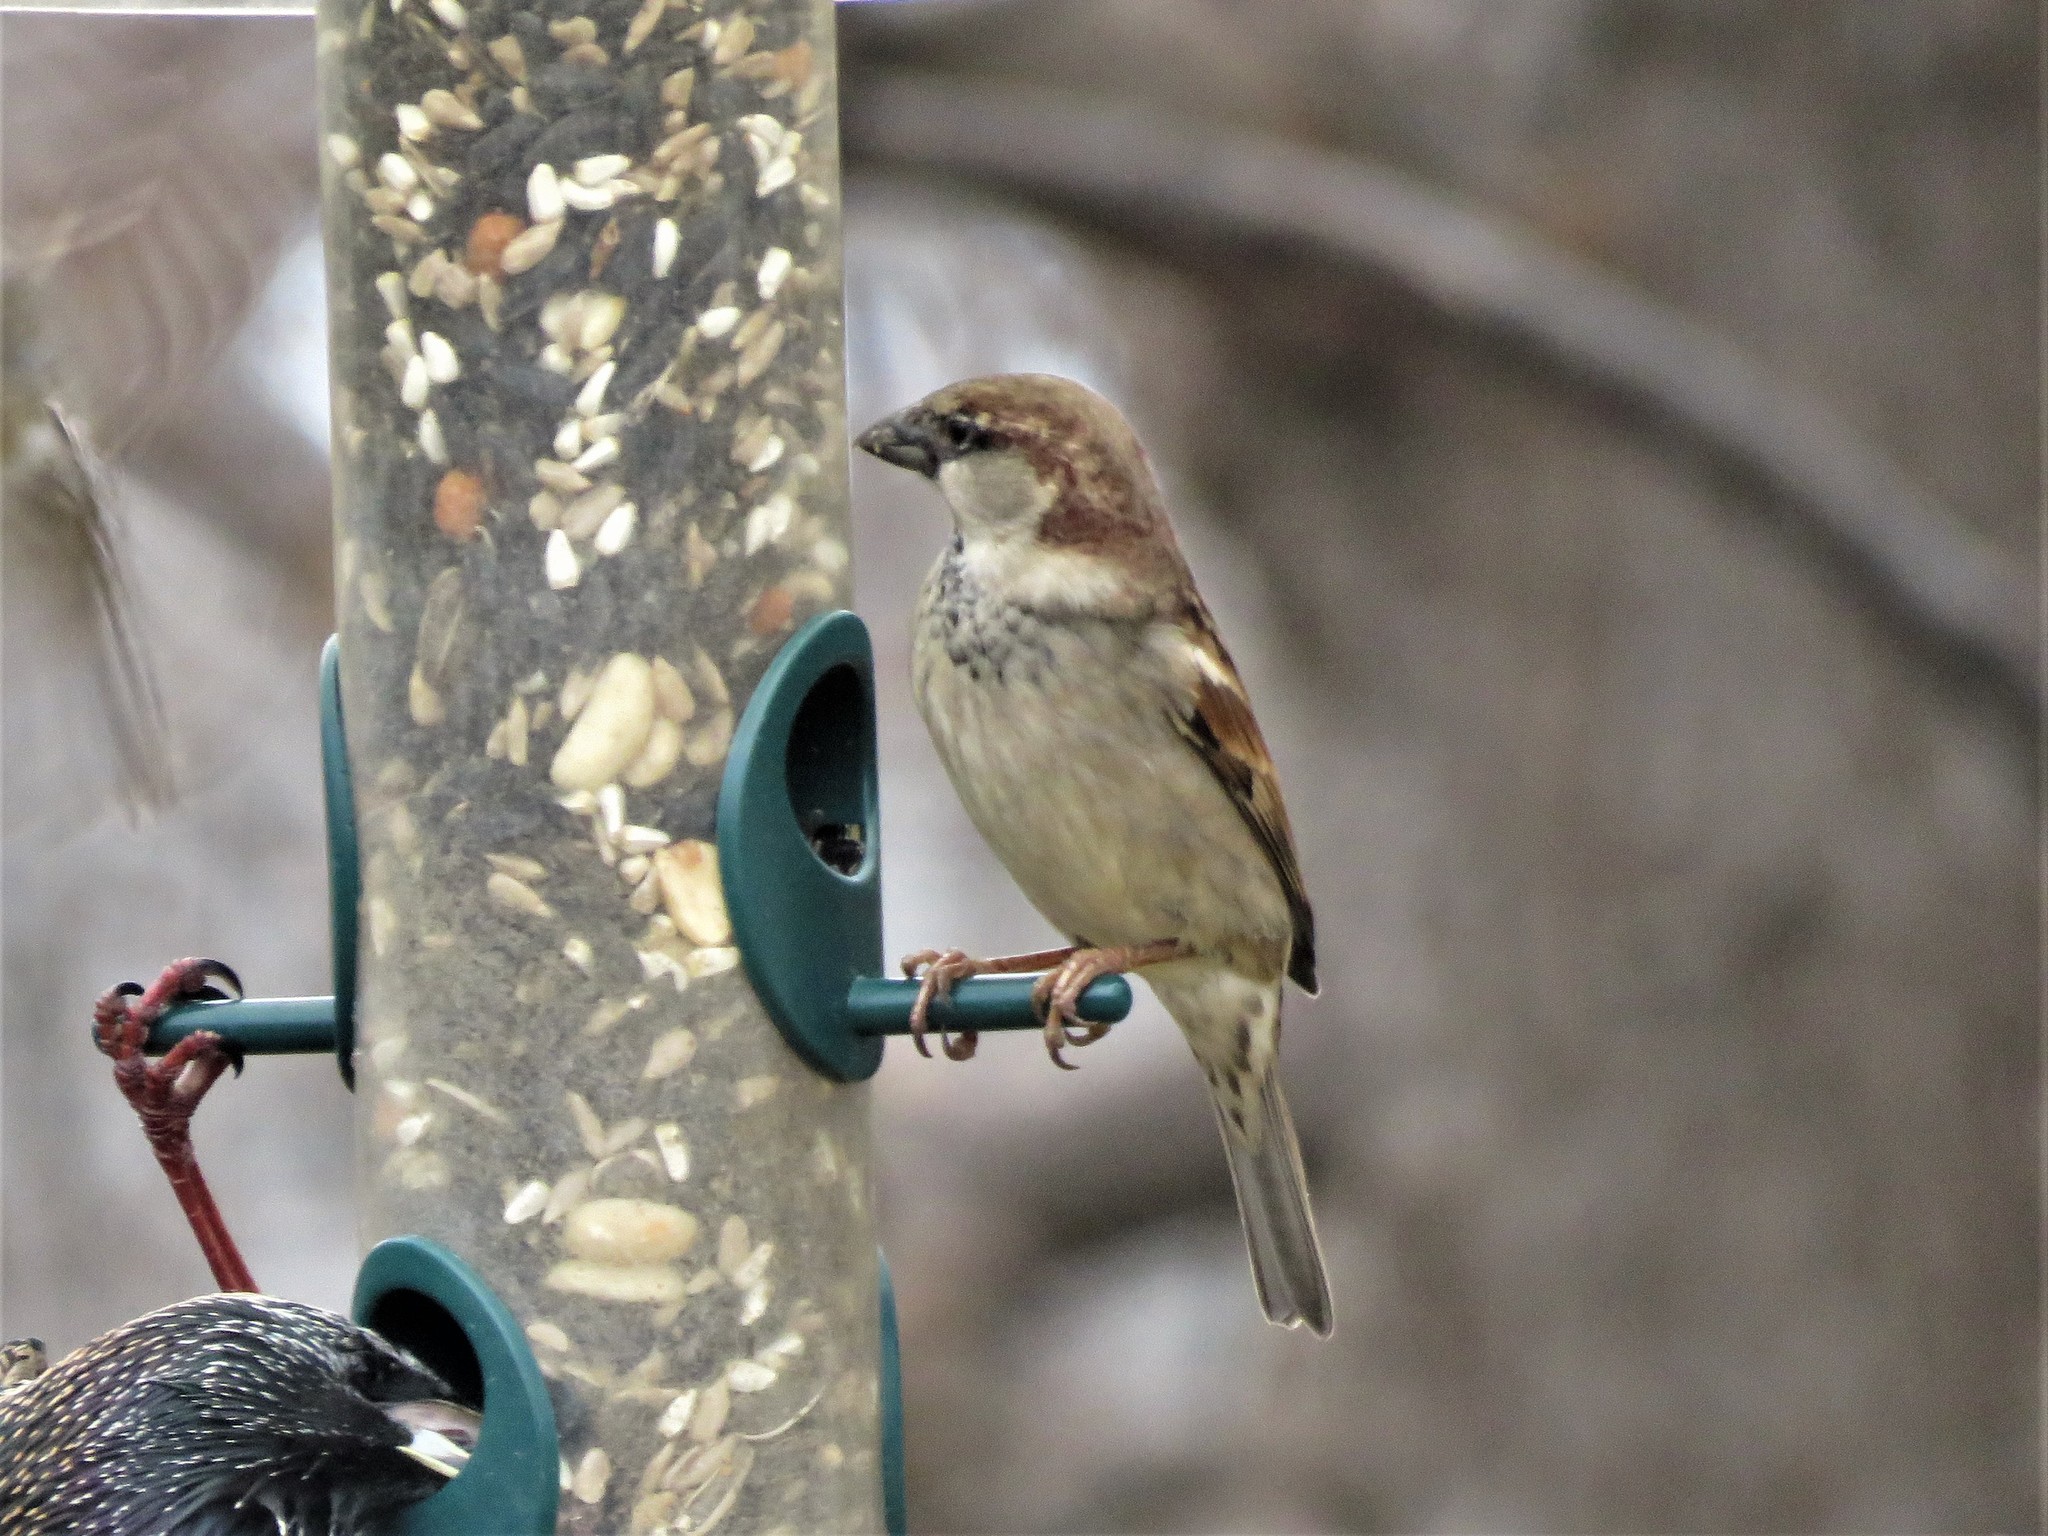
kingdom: Animalia
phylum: Chordata
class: Aves
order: Passeriformes
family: Passeridae
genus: Passer
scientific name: Passer domesticus
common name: House sparrow
